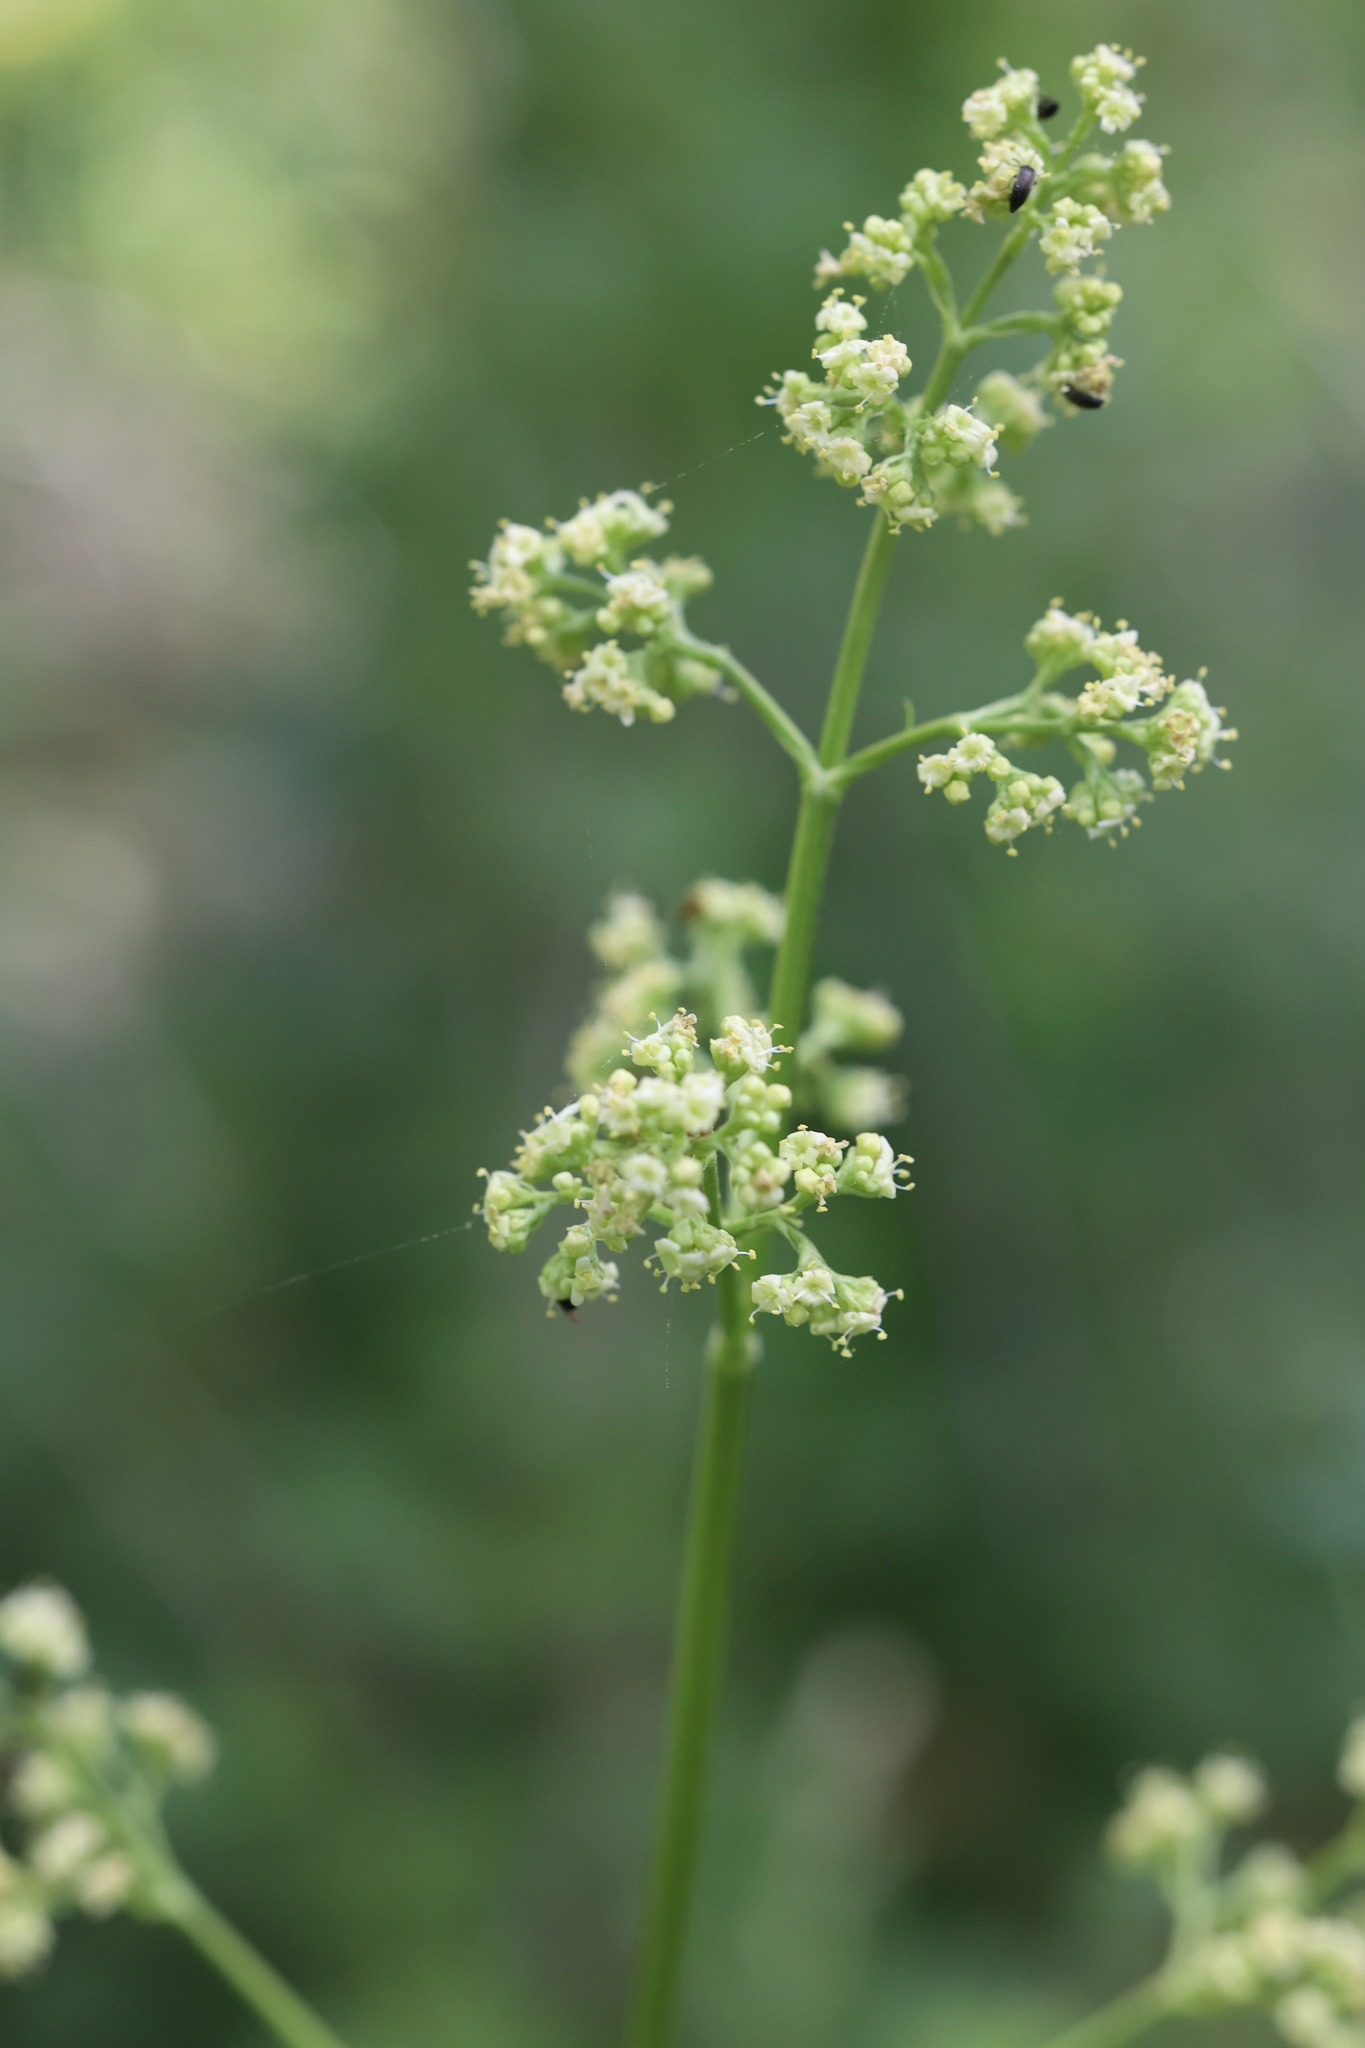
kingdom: Plantae
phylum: Tracheophyta
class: Magnoliopsida
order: Dipsacales
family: Caprifoliaceae
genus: Valeriana
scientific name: Valeriana edulis
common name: Taproot valerian
